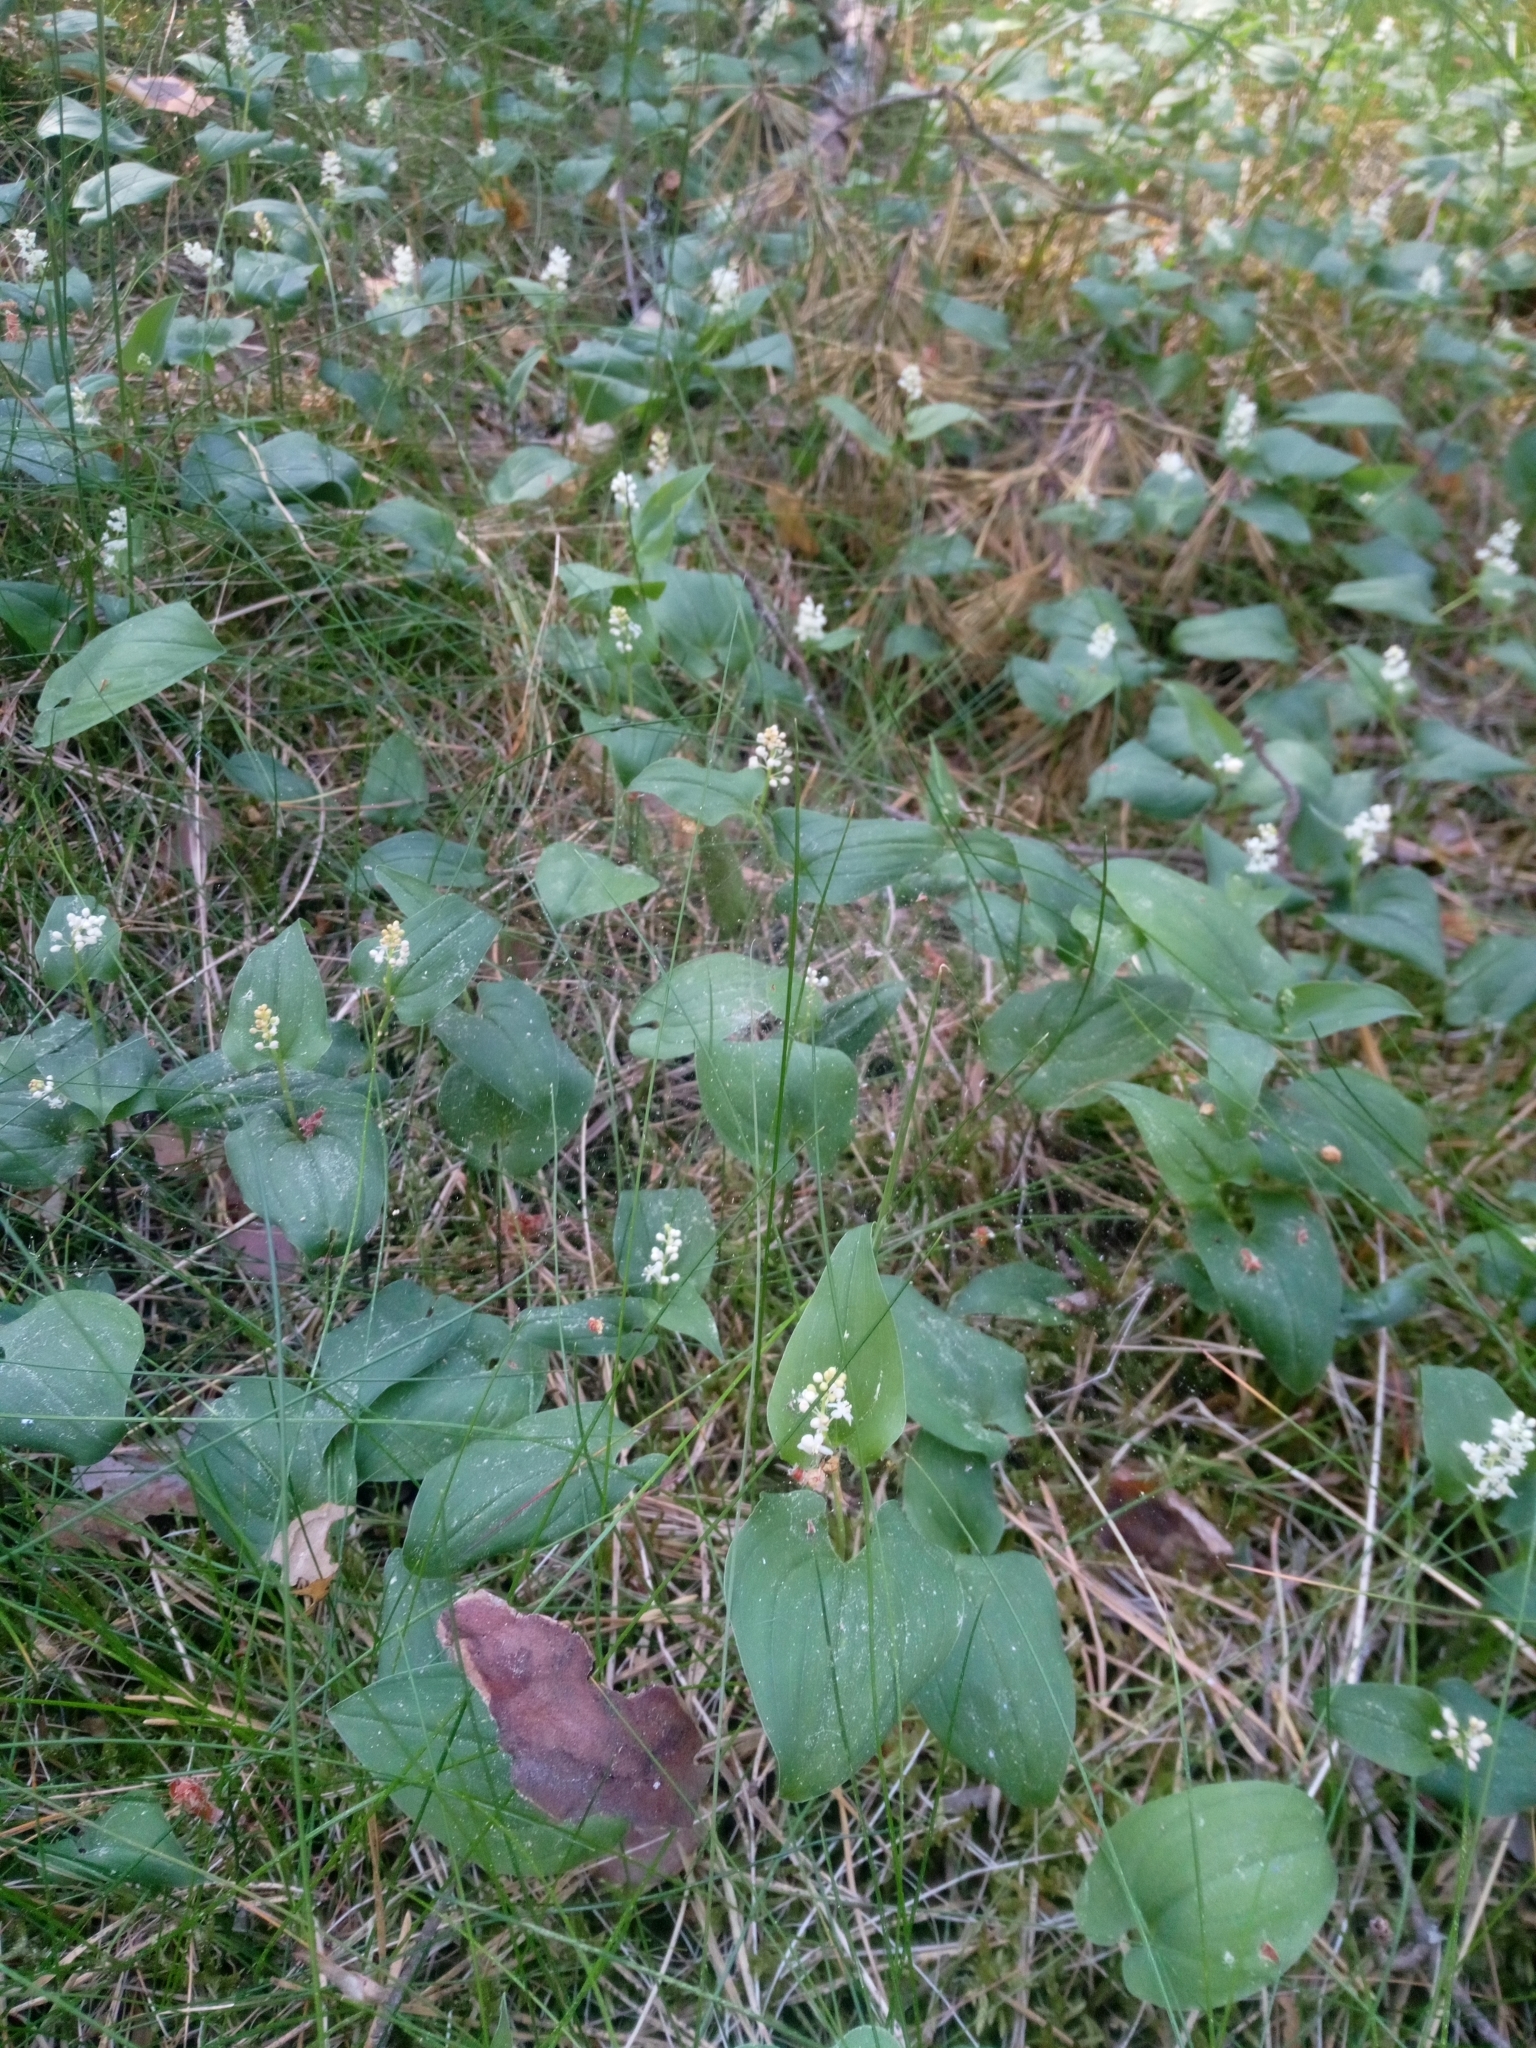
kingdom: Plantae
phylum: Tracheophyta
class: Liliopsida
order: Asparagales
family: Asparagaceae
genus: Maianthemum
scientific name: Maianthemum bifolium
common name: May lily
